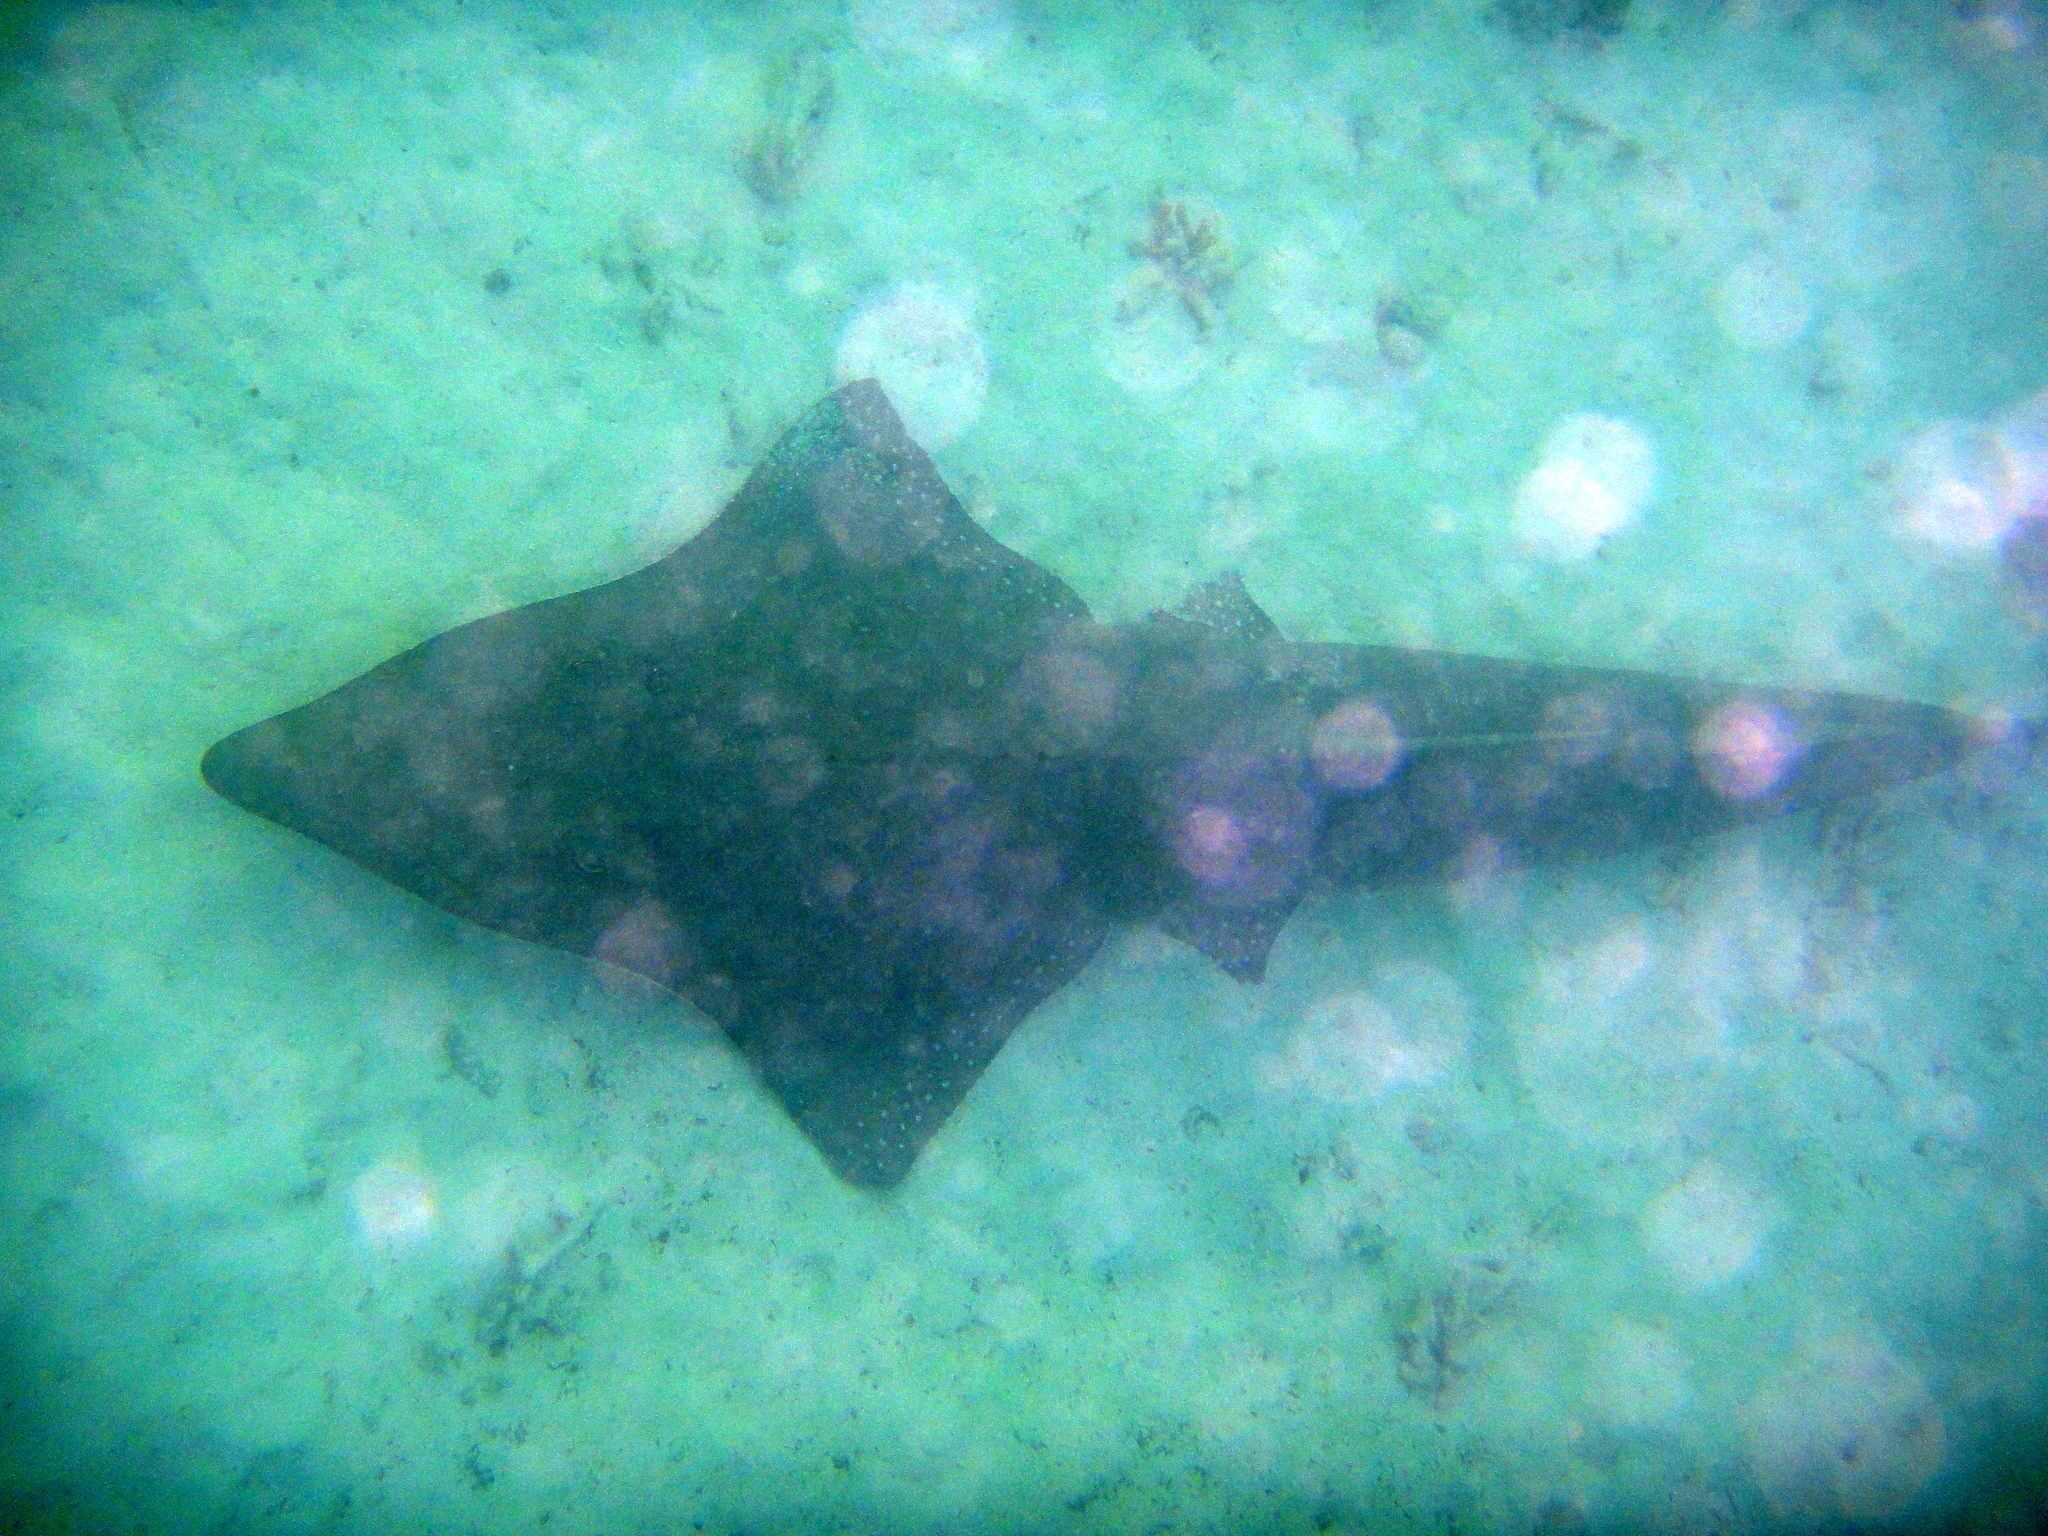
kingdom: Animalia
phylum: Chordata
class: Elasmobranchii
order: Rhinopristiformes
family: Rhinidae
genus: Rhynchobatus
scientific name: Rhynchobatus australiae
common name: Whitespotted wedgefish
